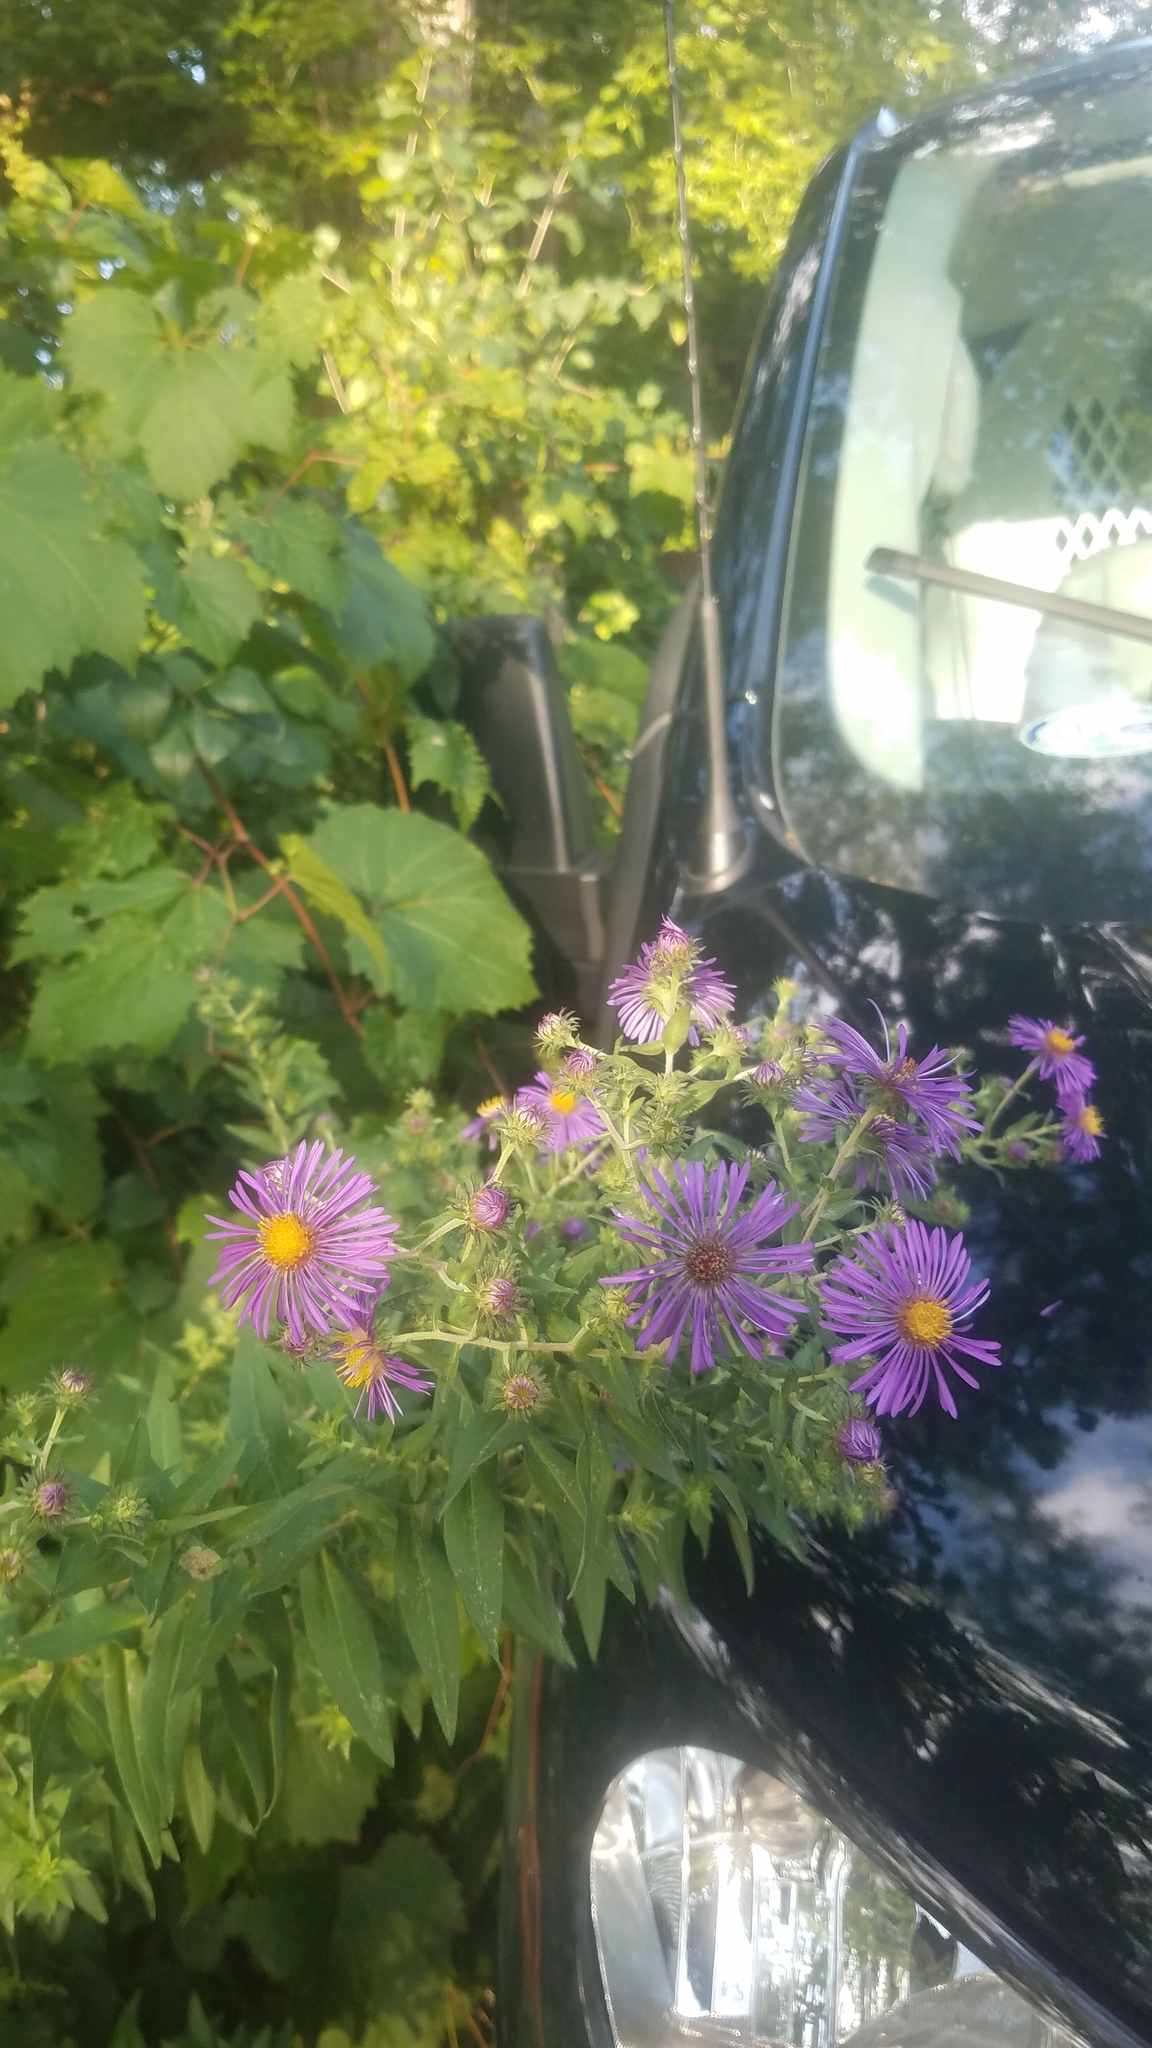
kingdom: Plantae
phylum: Tracheophyta
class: Magnoliopsida
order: Asterales
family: Asteraceae
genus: Symphyotrichum
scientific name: Symphyotrichum novae-angliae
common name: Michaelmas daisy
